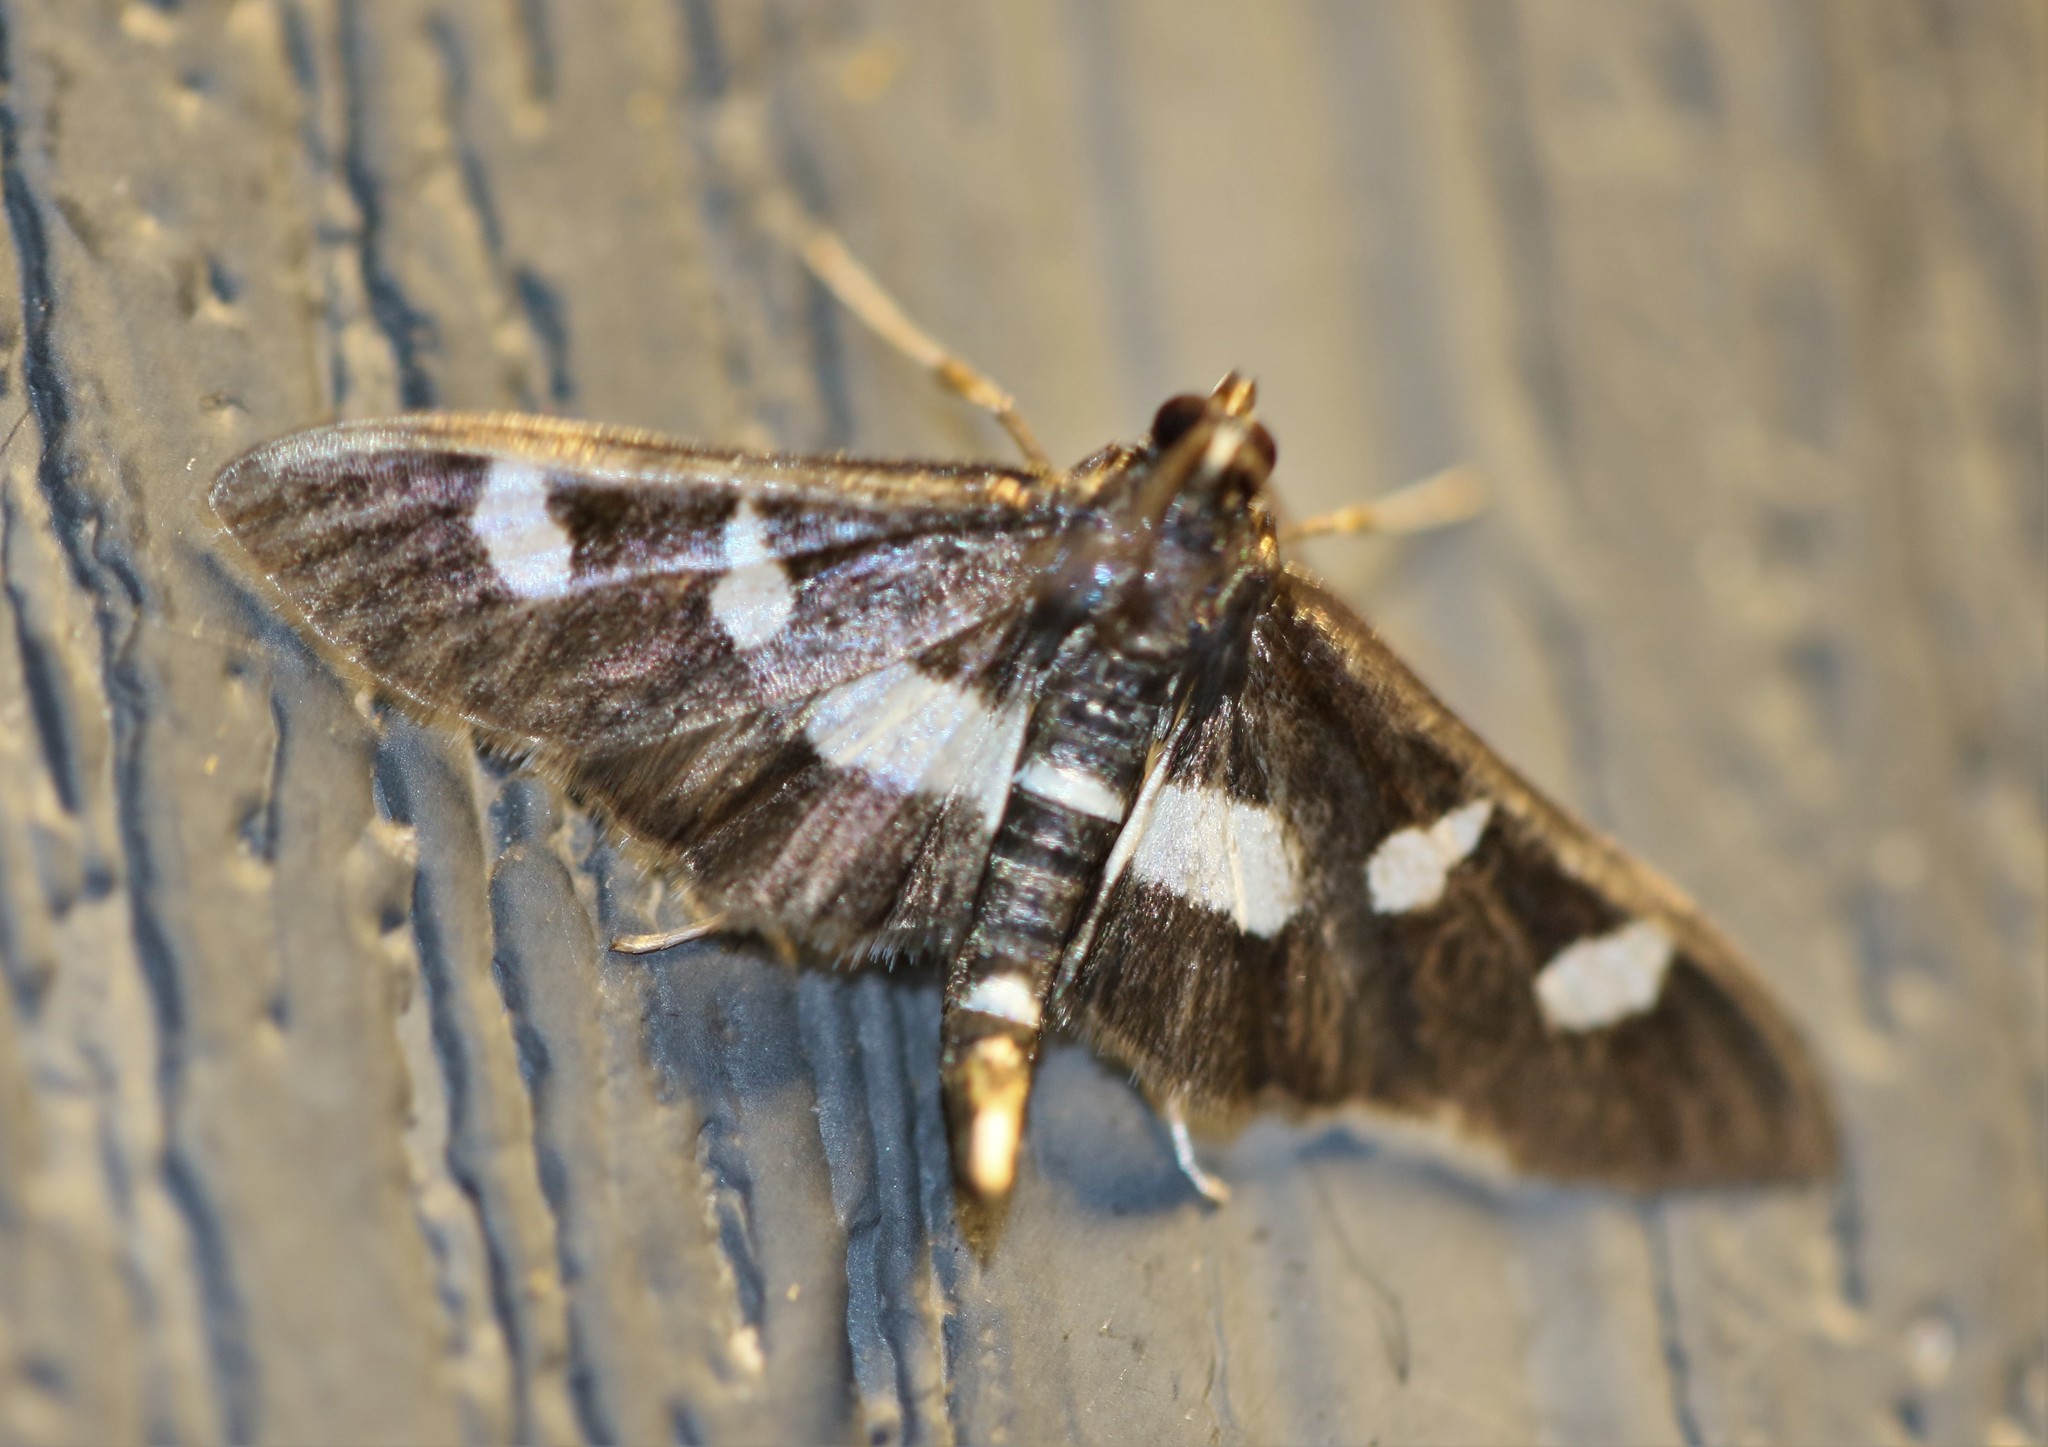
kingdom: Animalia
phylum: Arthropoda
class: Insecta
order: Lepidoptera
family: Crambidae
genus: Desmia
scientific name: Desmia
